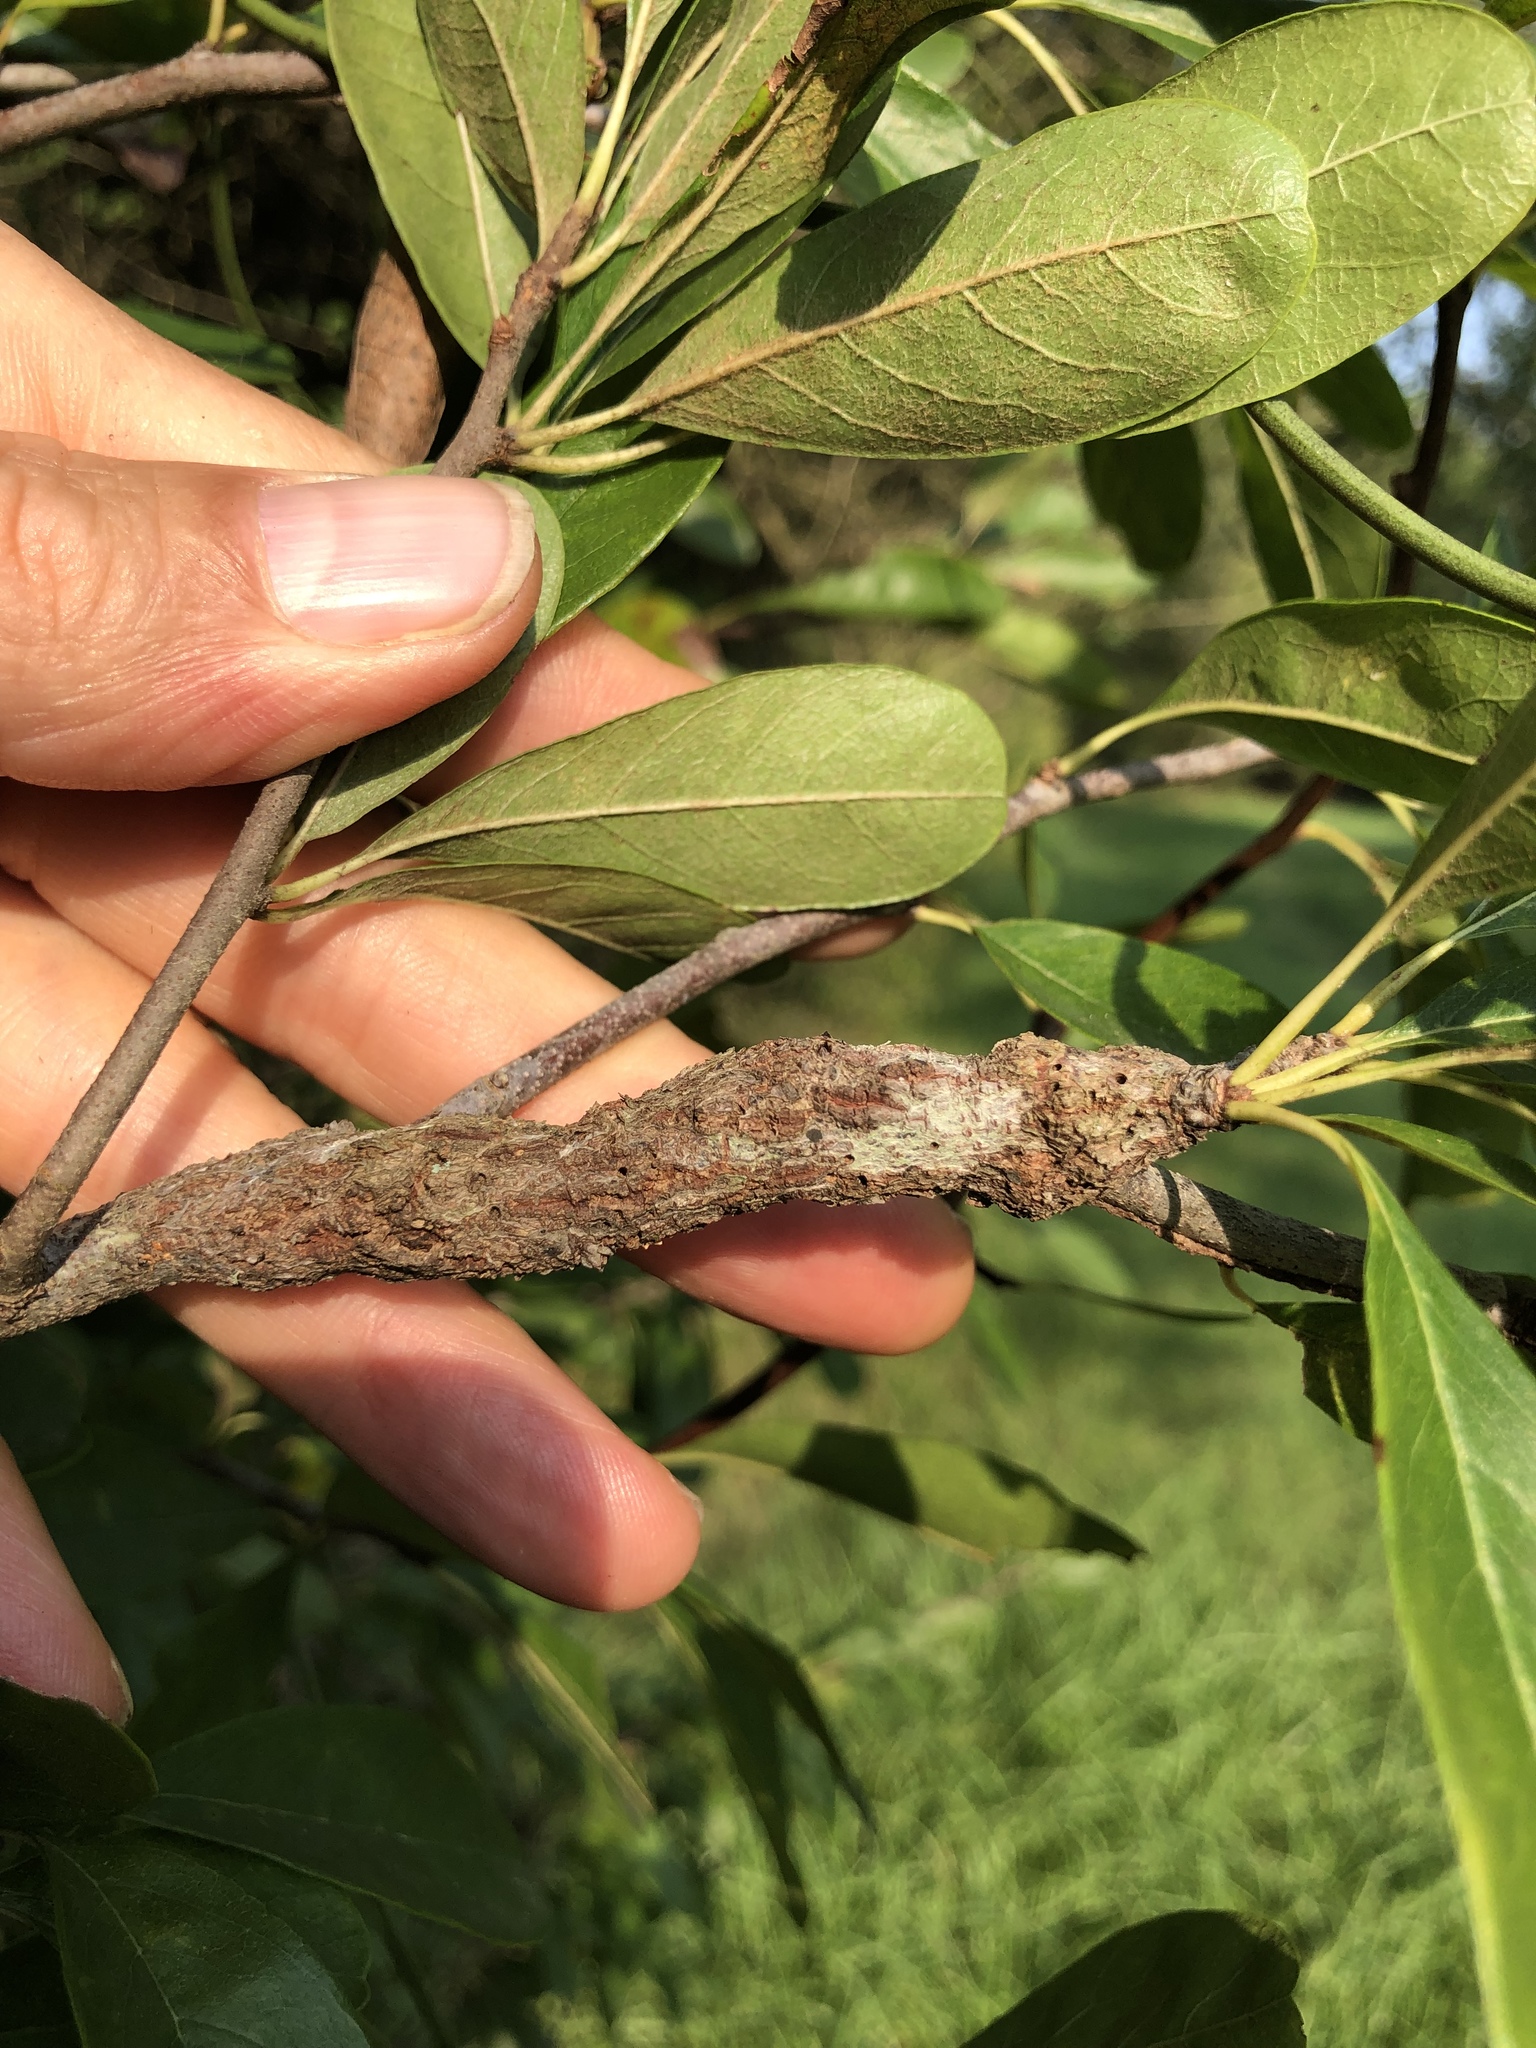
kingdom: Animalia
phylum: Arthropoda
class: Insecta
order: Diptera
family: Cecidomyiidae
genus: Bruggmanniella
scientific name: Bruggmanniella bumeliae
